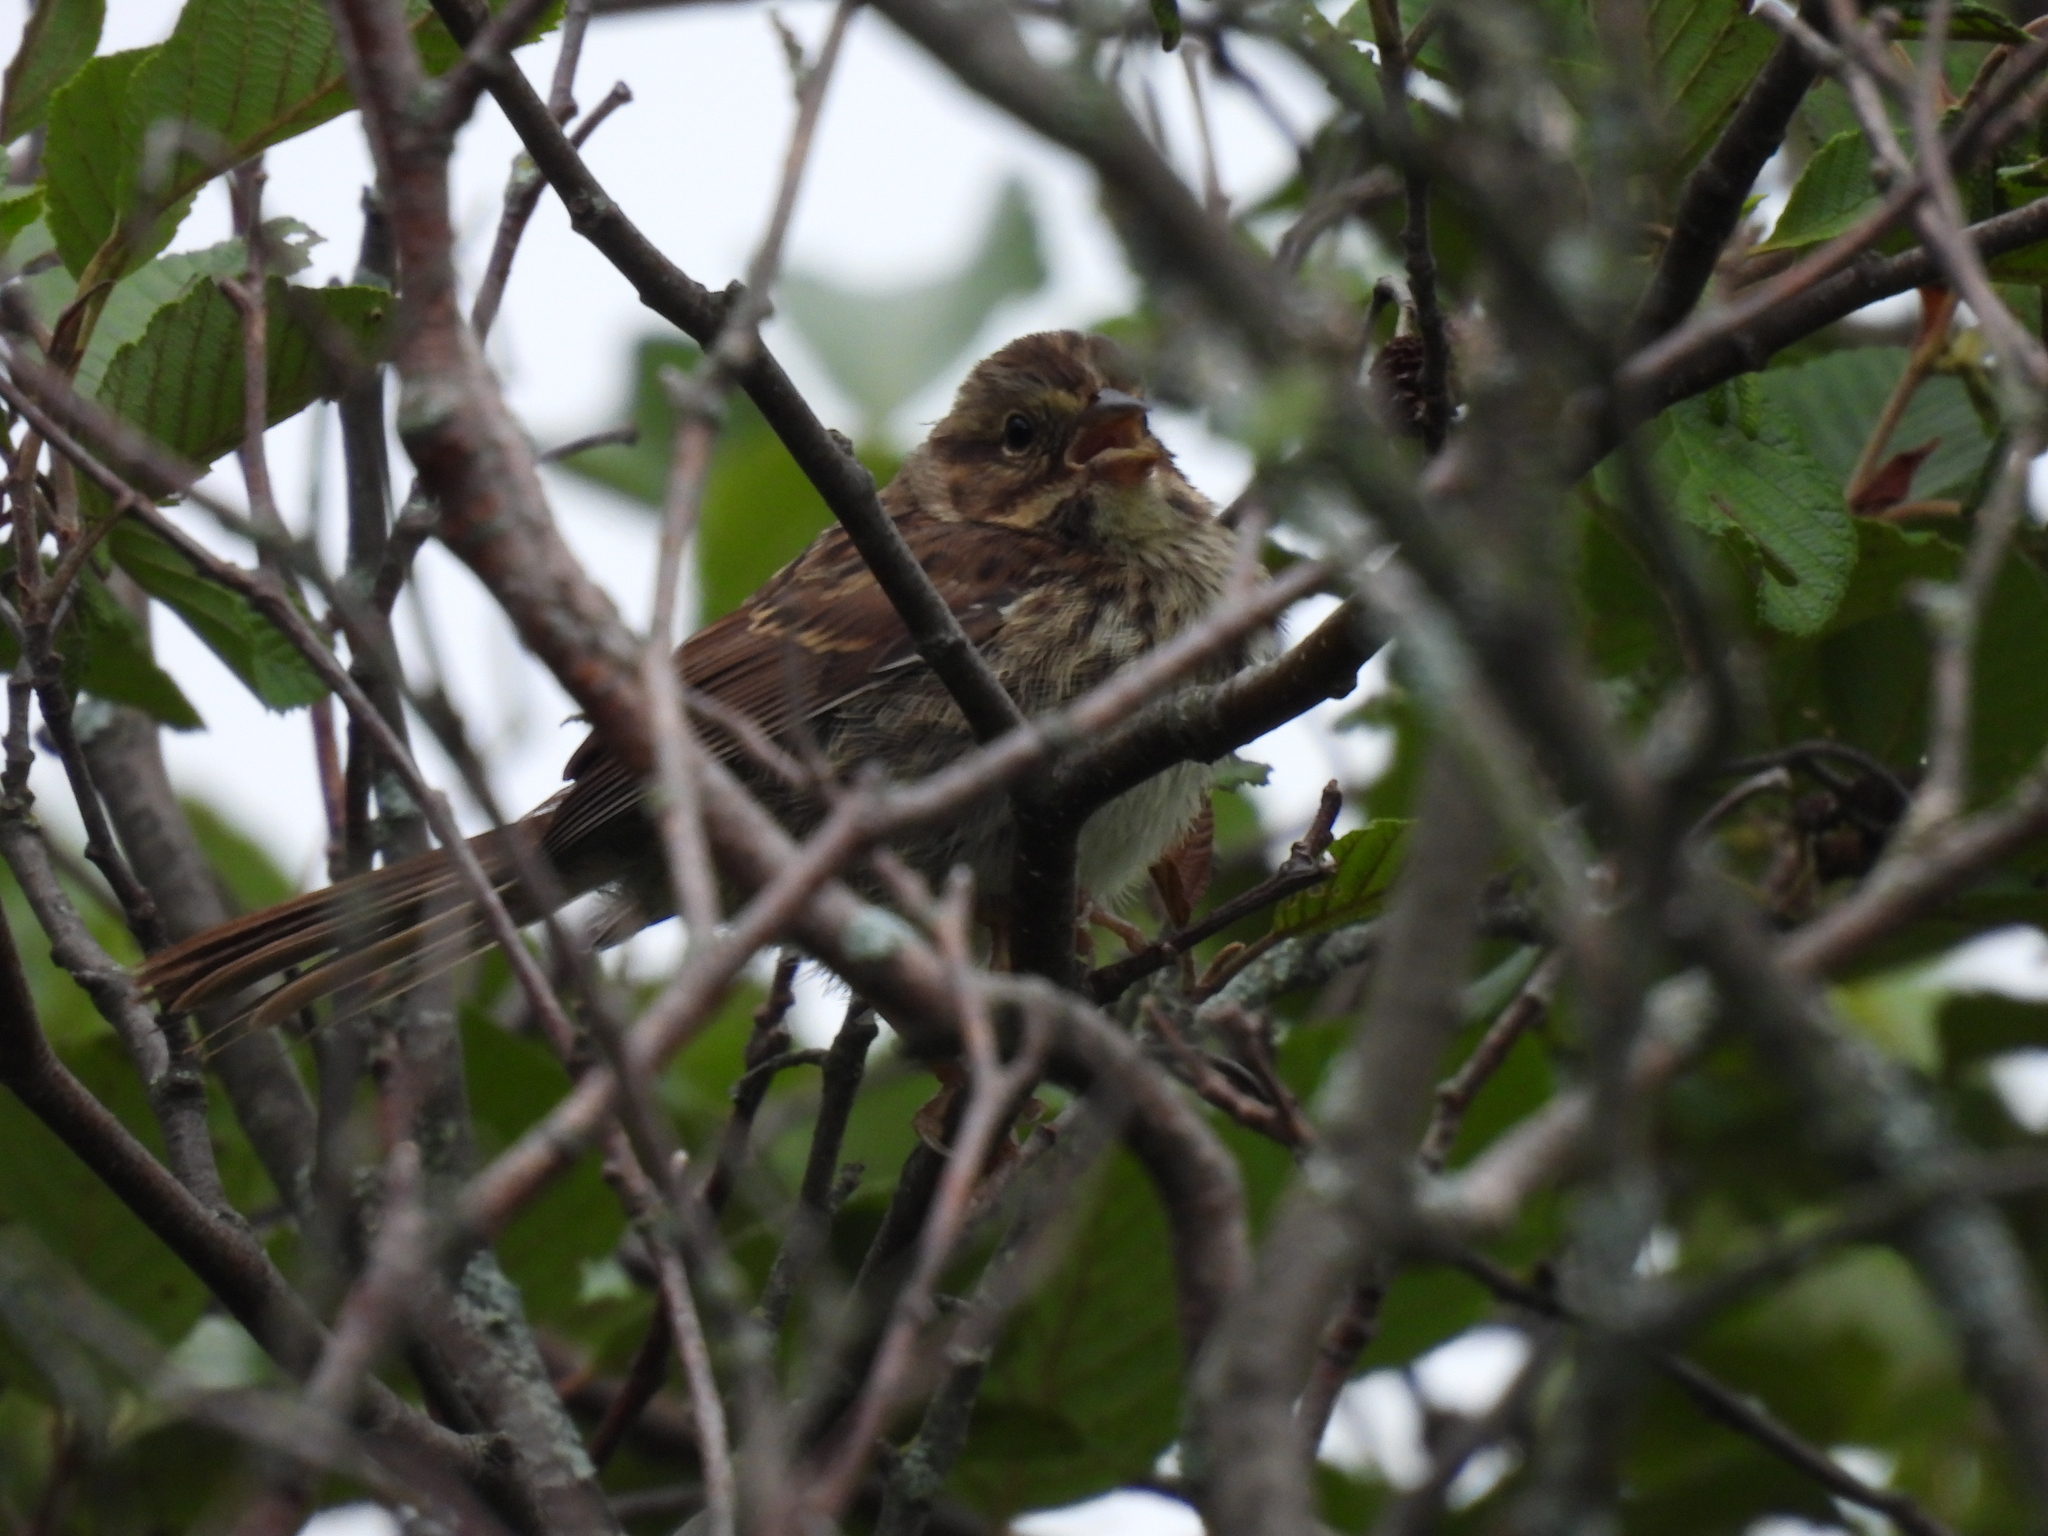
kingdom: Animalia
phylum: Chordata
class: Aves
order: Passeriformes
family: Passerellidae
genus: Melospiza
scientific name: Melospiza melodia
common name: Song sparrow
